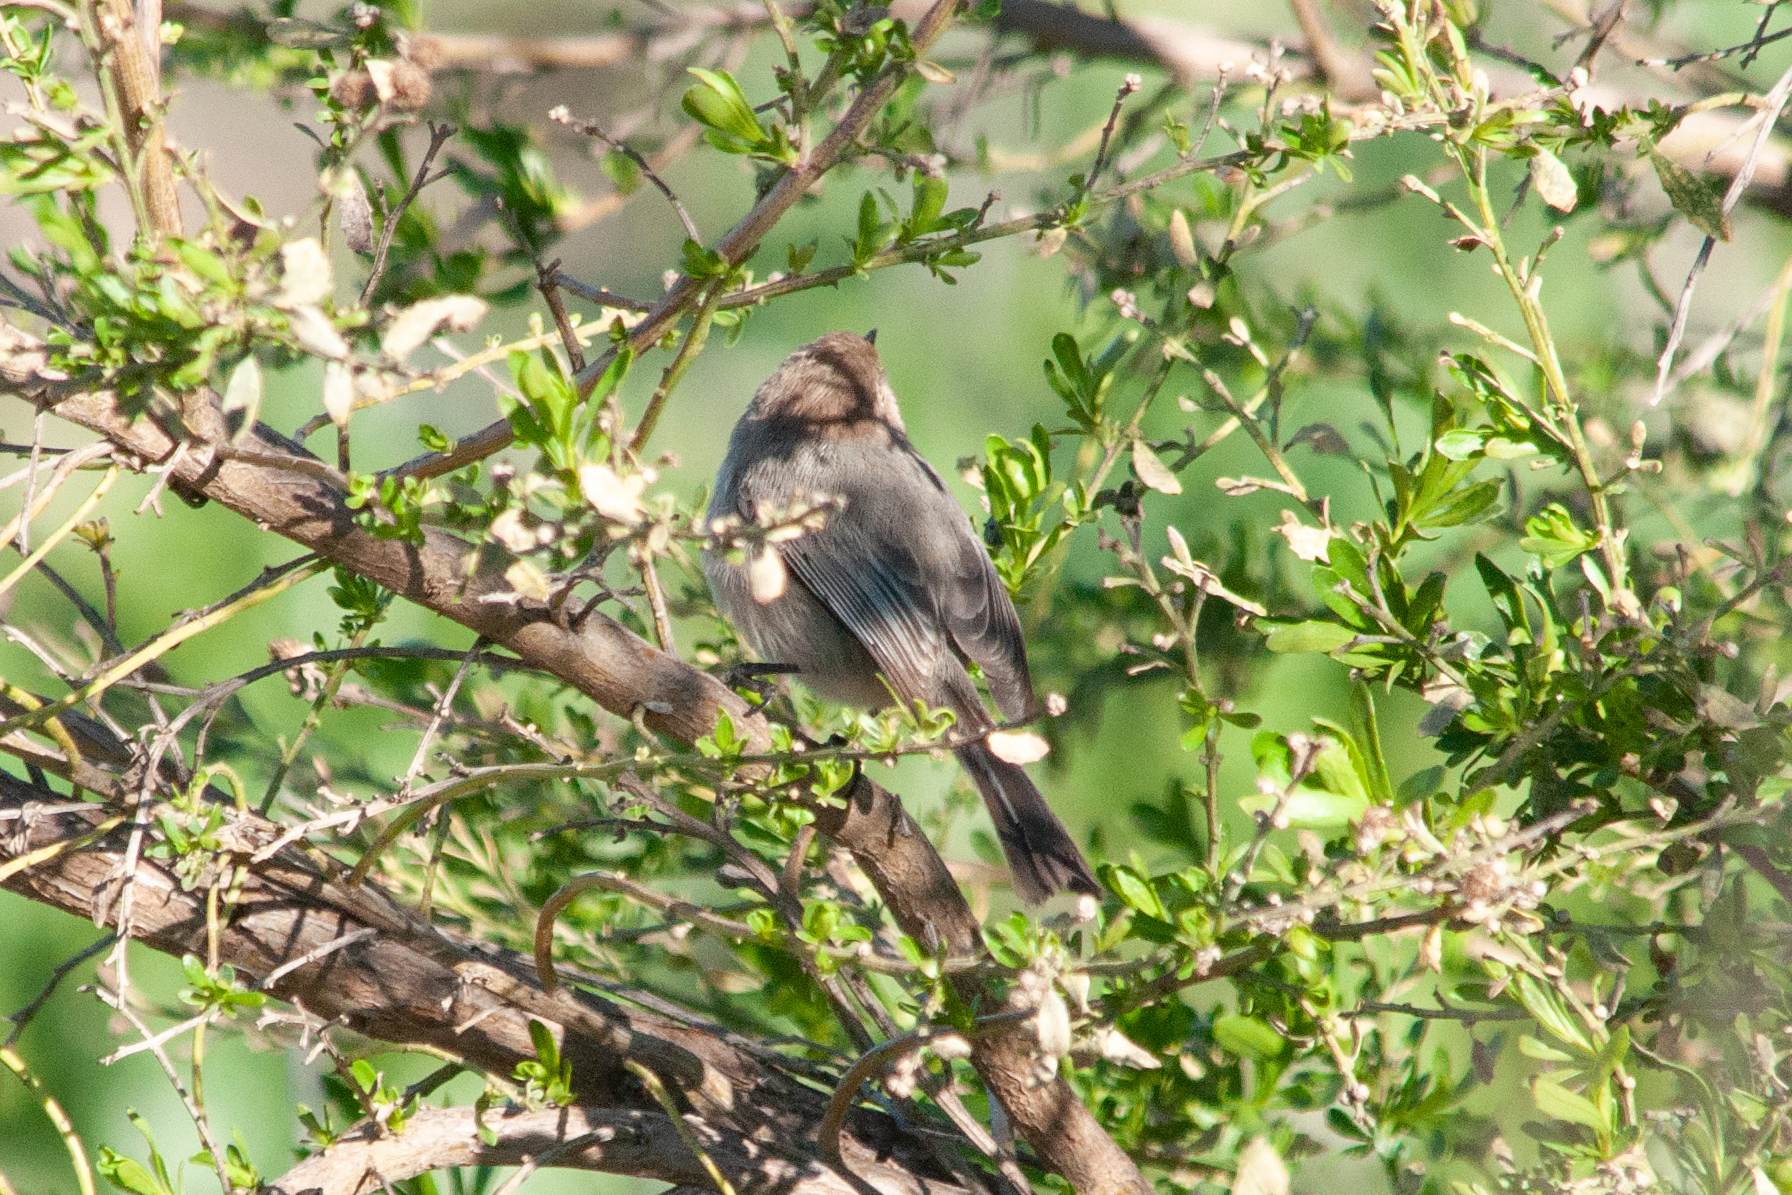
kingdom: Animalia
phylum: Chordata
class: Aves
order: Passeriformes
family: Aegithalidae
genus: Psaltriparus
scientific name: Psaltriparus minimus
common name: American bushtit
